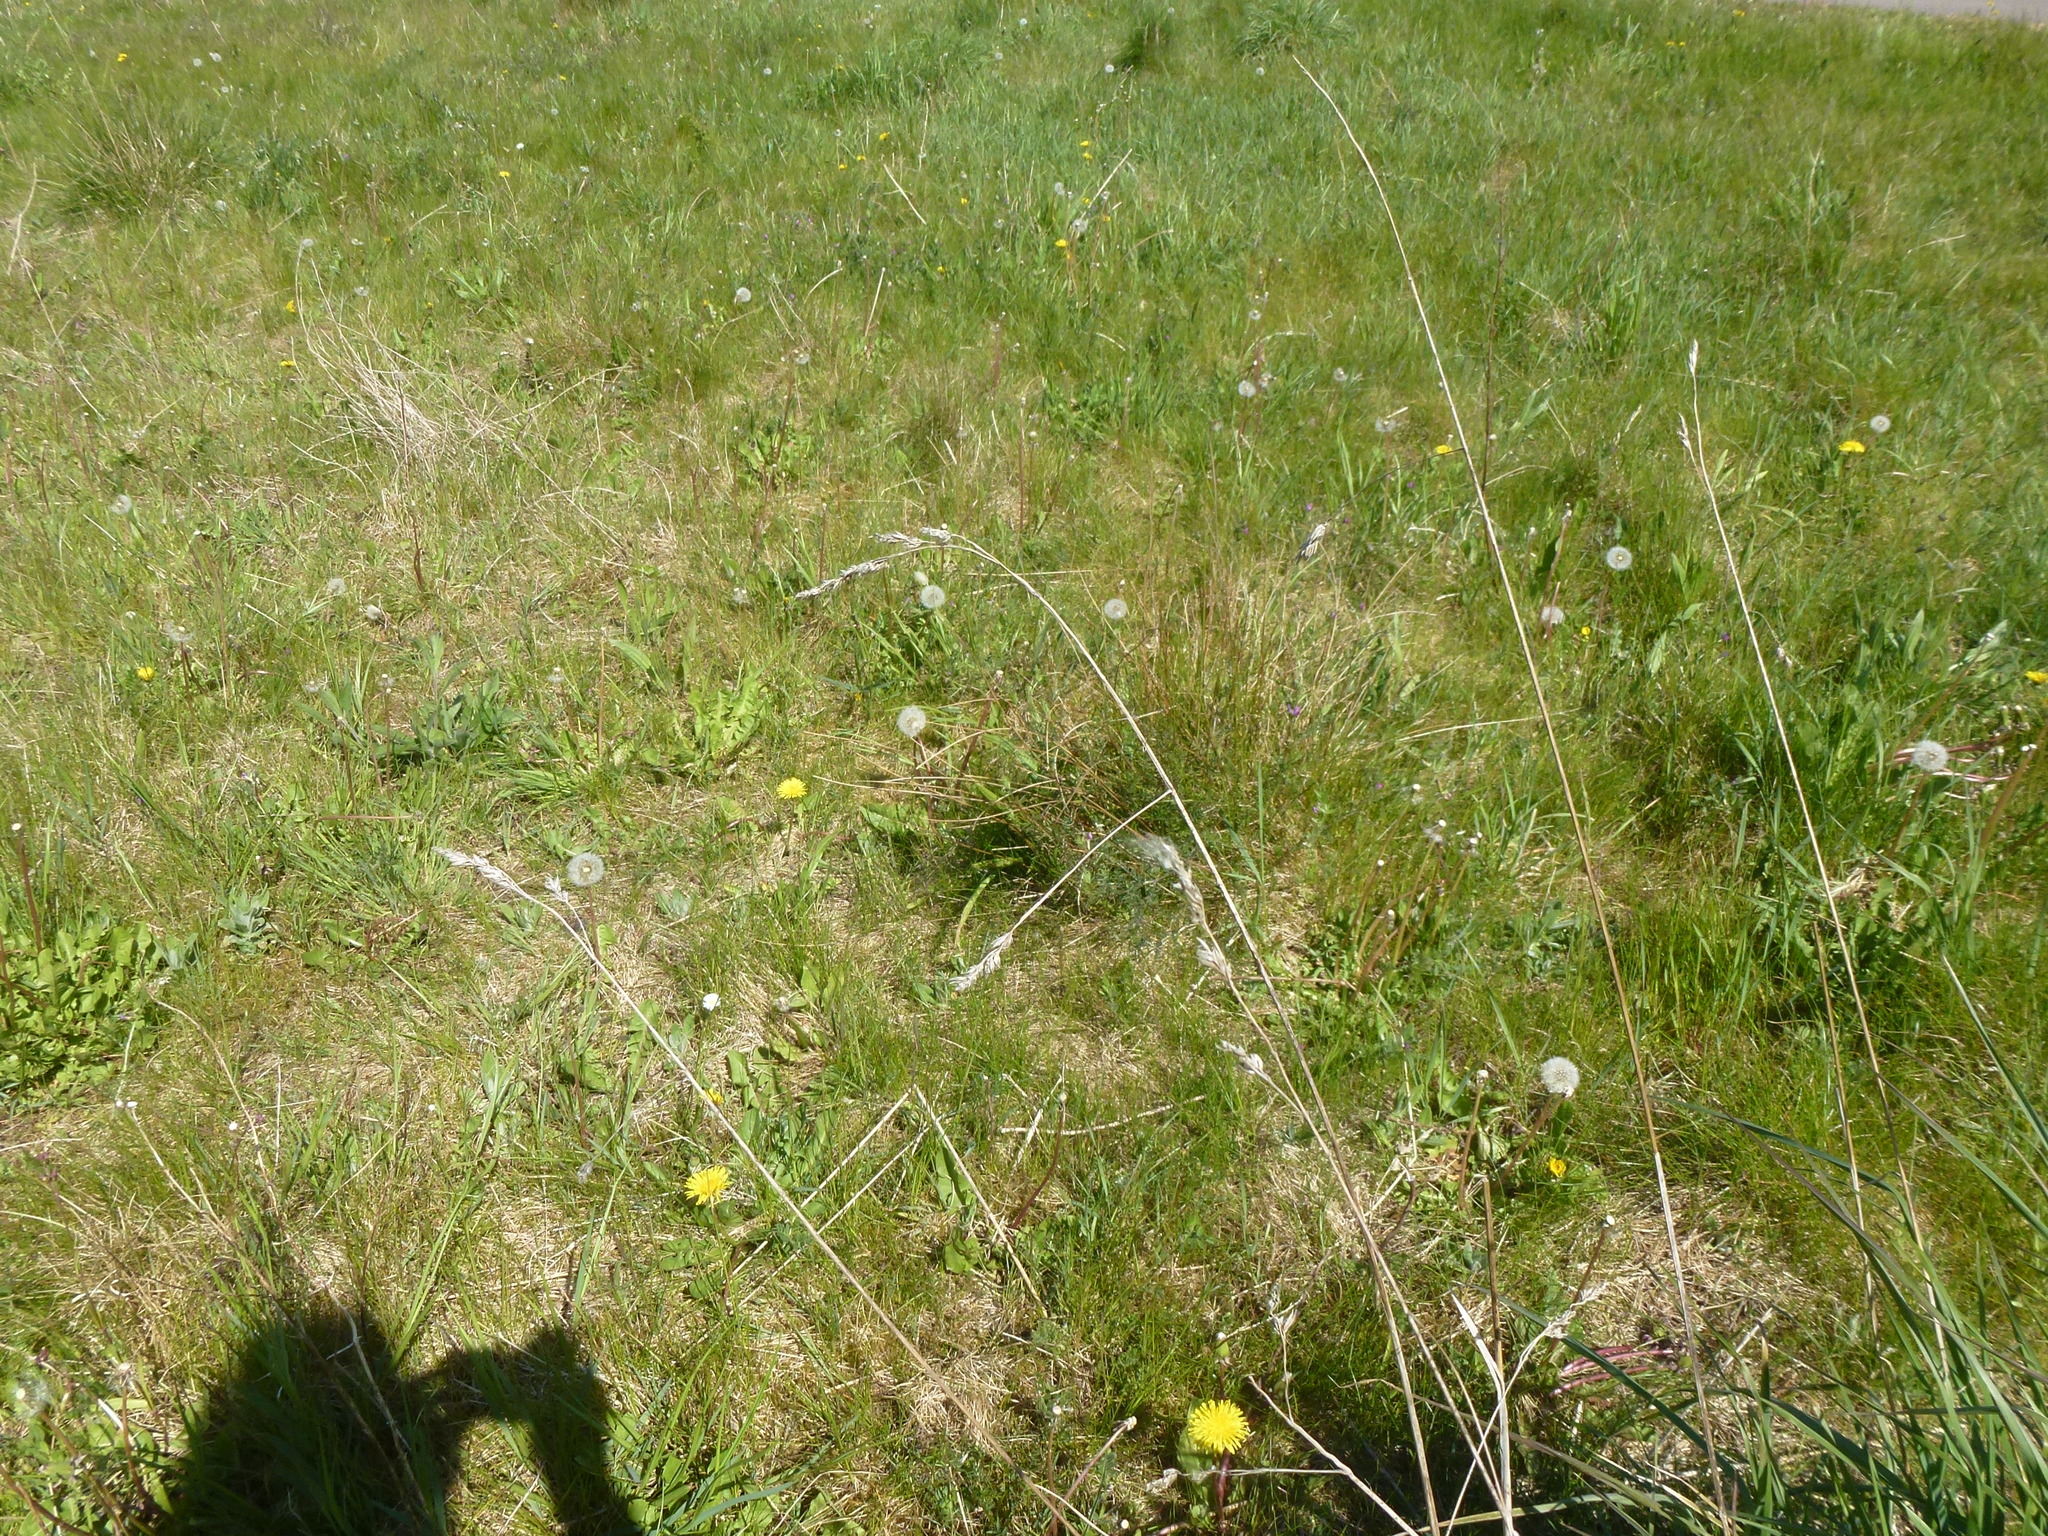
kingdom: Plantae
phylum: Tracheophyta
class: Liliopsida
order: Poales
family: Poaceae
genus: Dactylis
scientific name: Dactylis glomerata
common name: Orchardgrass
